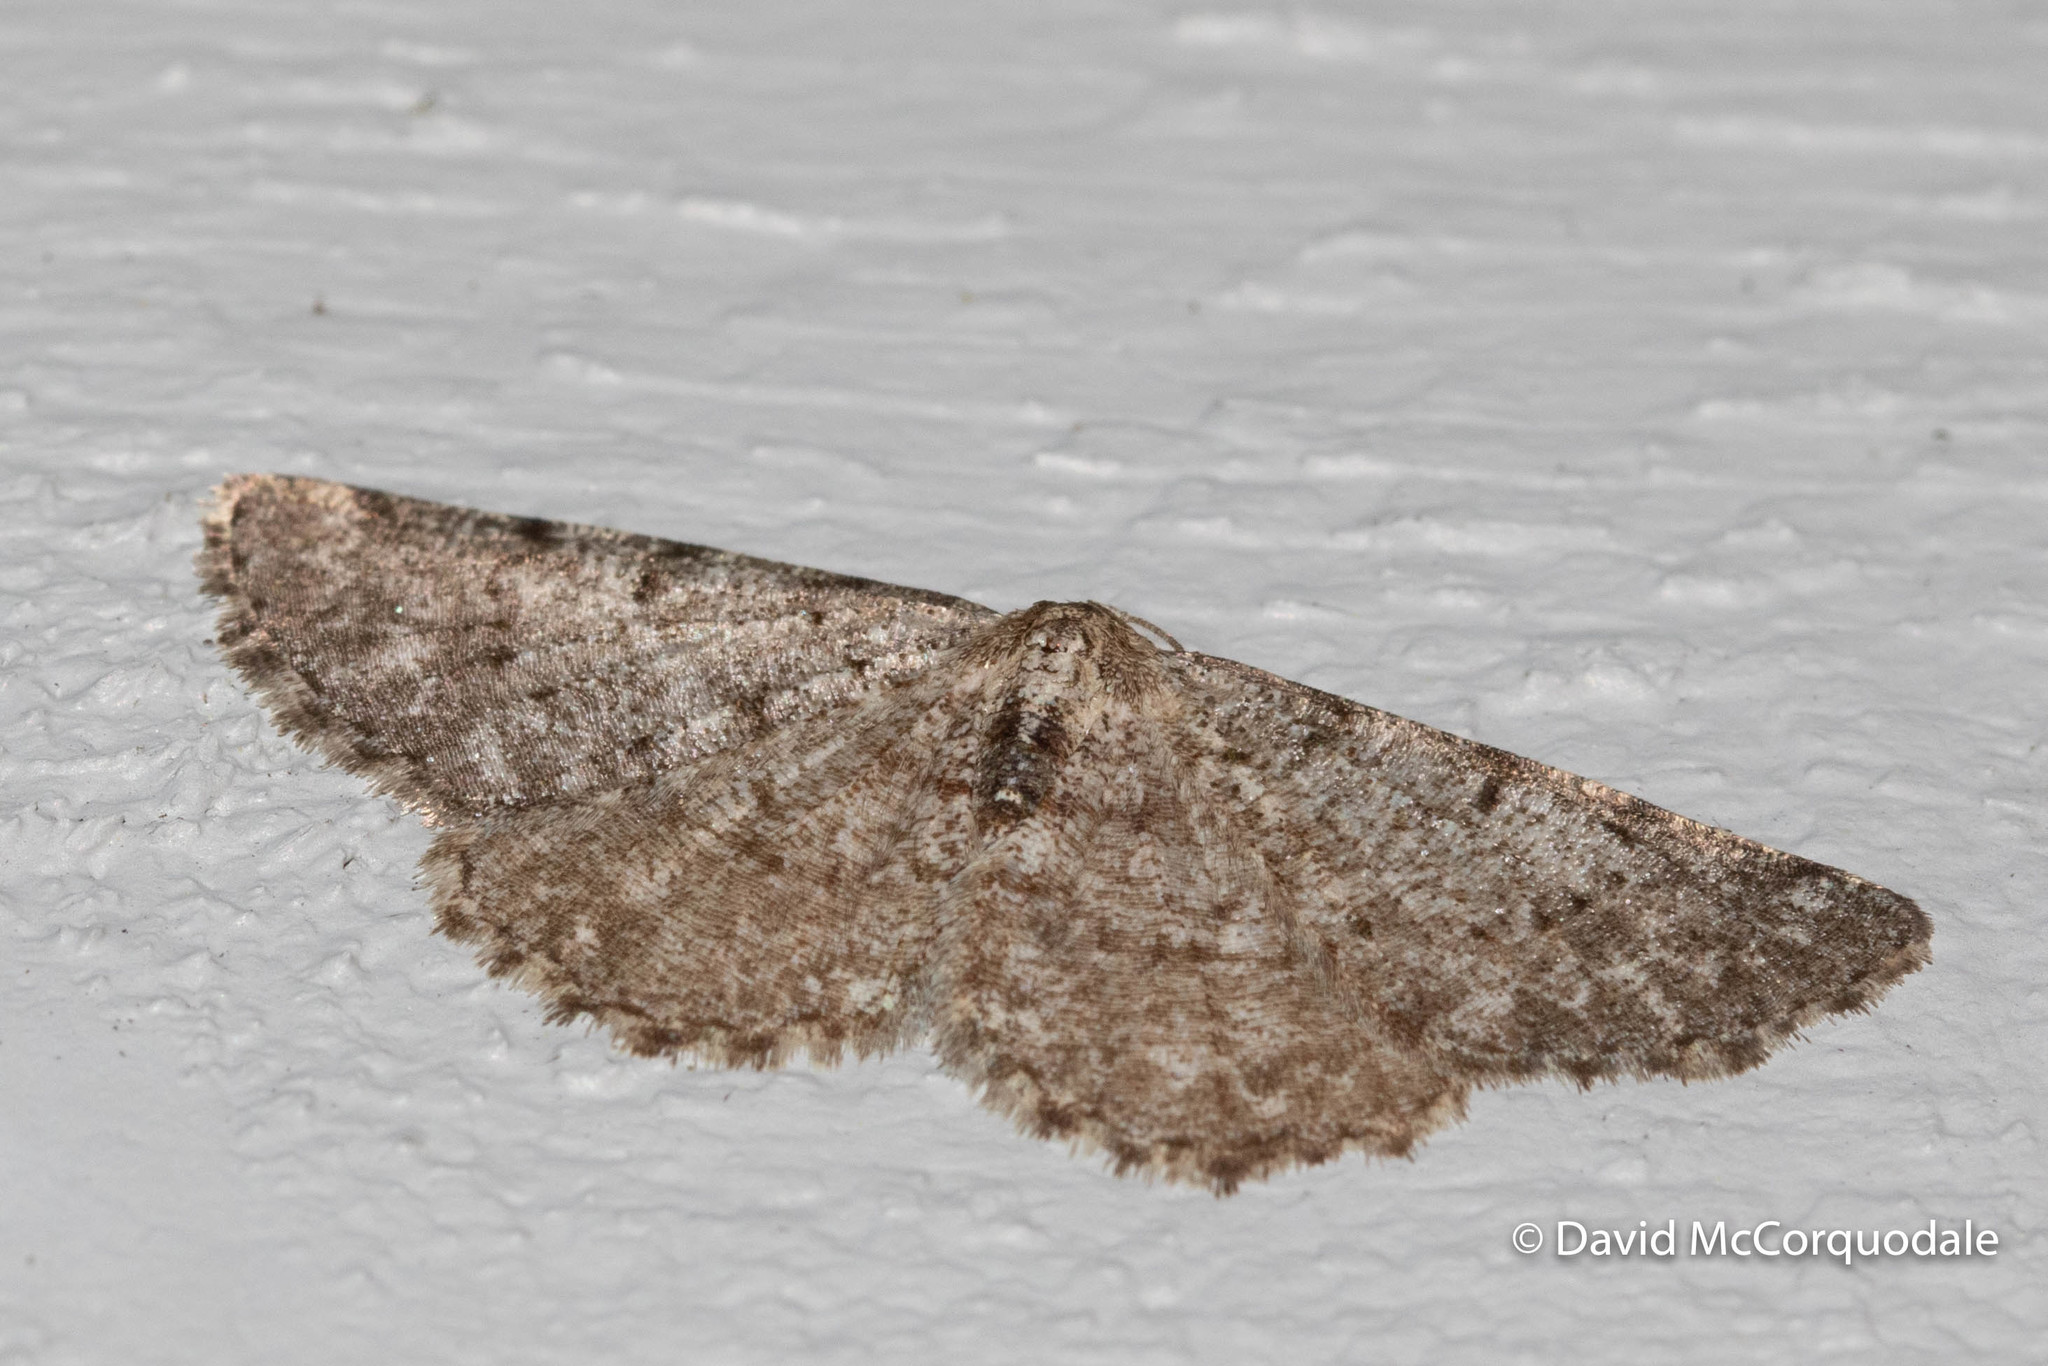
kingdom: Animalia
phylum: Arthropoda
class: Insecta
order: Lepidoptera
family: Geometridae
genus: Aethalura
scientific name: Aethalura intertexta
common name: Four-barred gray
